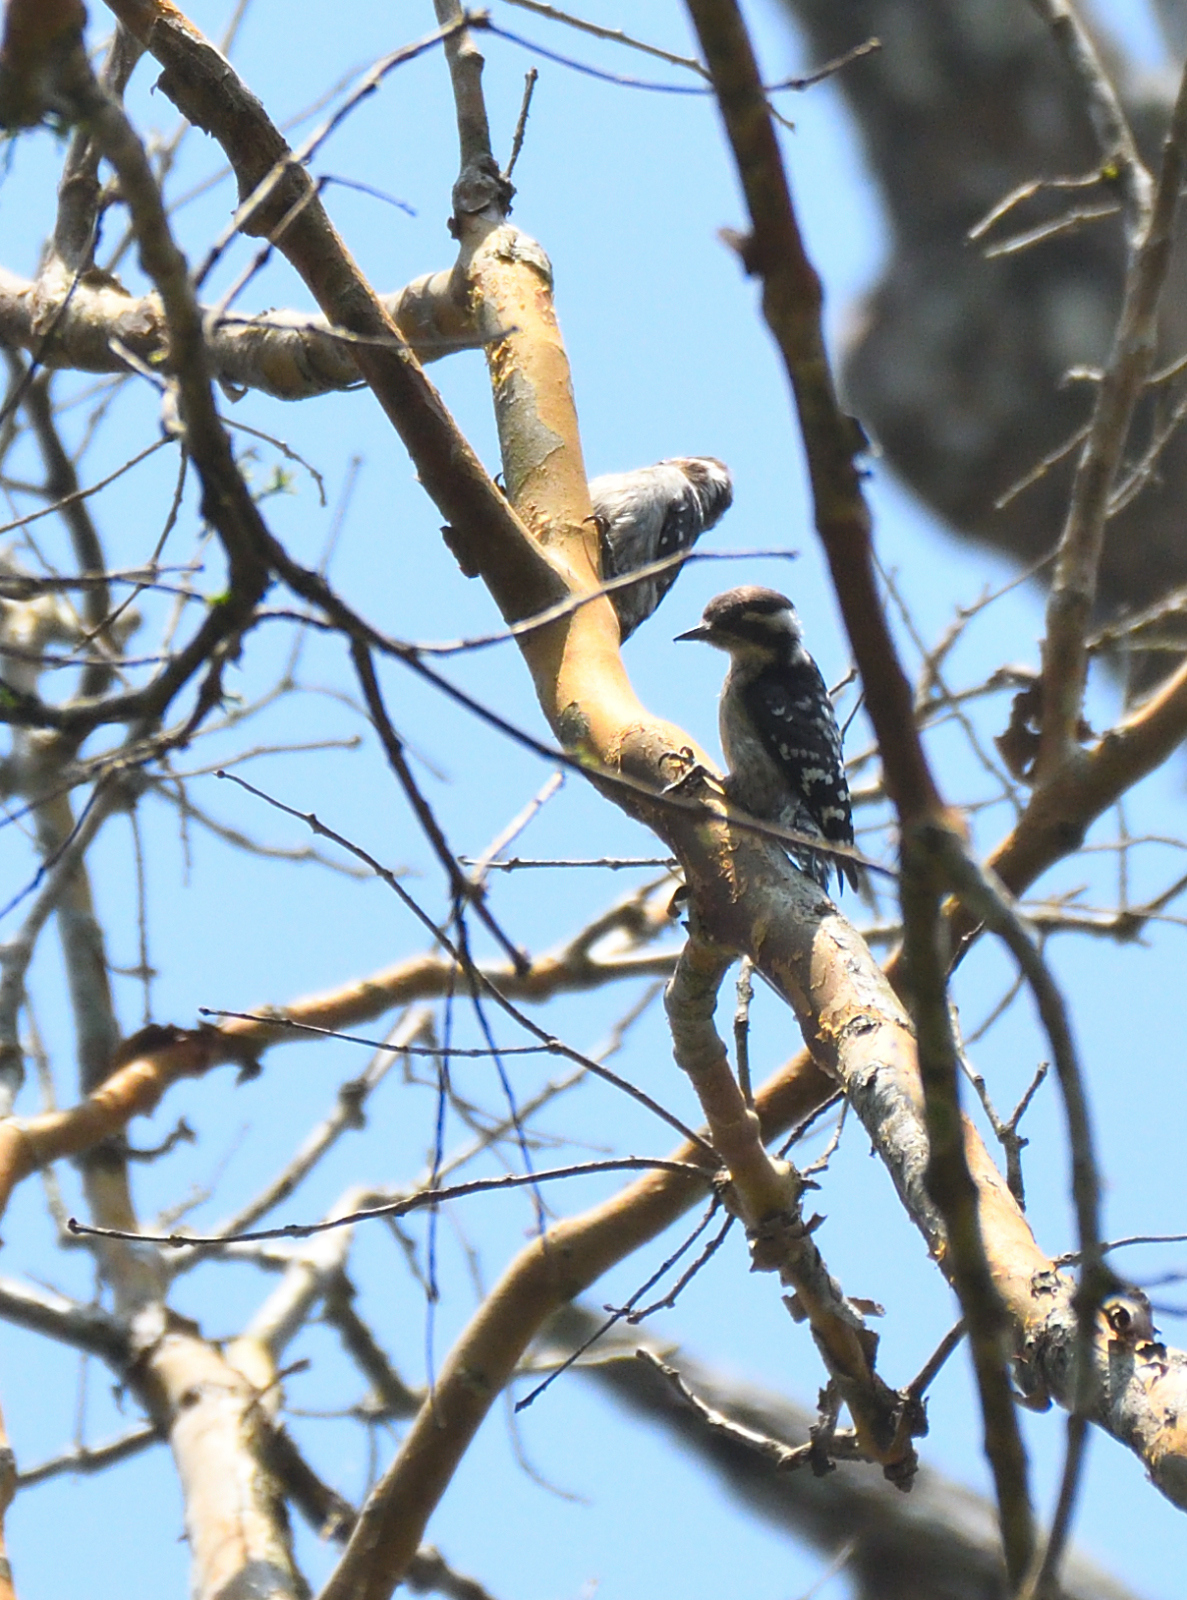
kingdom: Animalia
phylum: Chordata
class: Aves
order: Piciformes
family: Picidae
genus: Yungipicus
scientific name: Yungipicus nanus
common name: Brown-capped pygmy woodpecker
